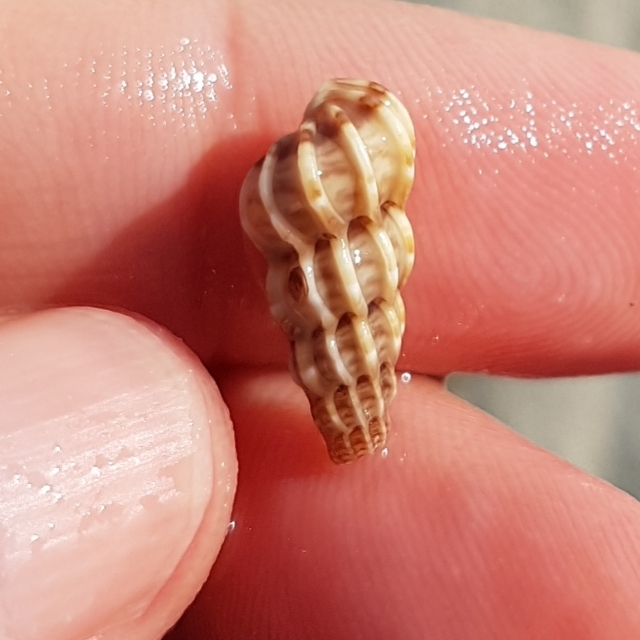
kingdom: Animalia
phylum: Mollusca
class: Gastropoda
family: Epitoniidae
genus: Epitonium
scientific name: Epitonium clathrus
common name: Common wentletrap
